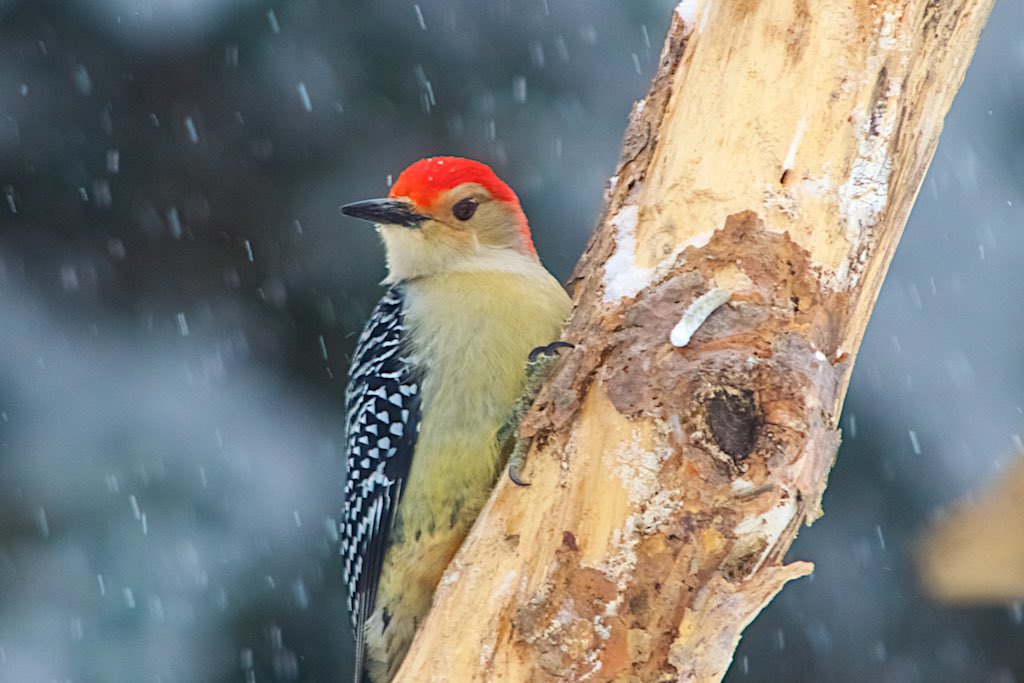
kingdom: Animalia
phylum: Chordata
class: Aves
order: Piciformes
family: Picidae
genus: Melanerpes
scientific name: Melanerpes carolinus
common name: Red-bellied woodpecker
